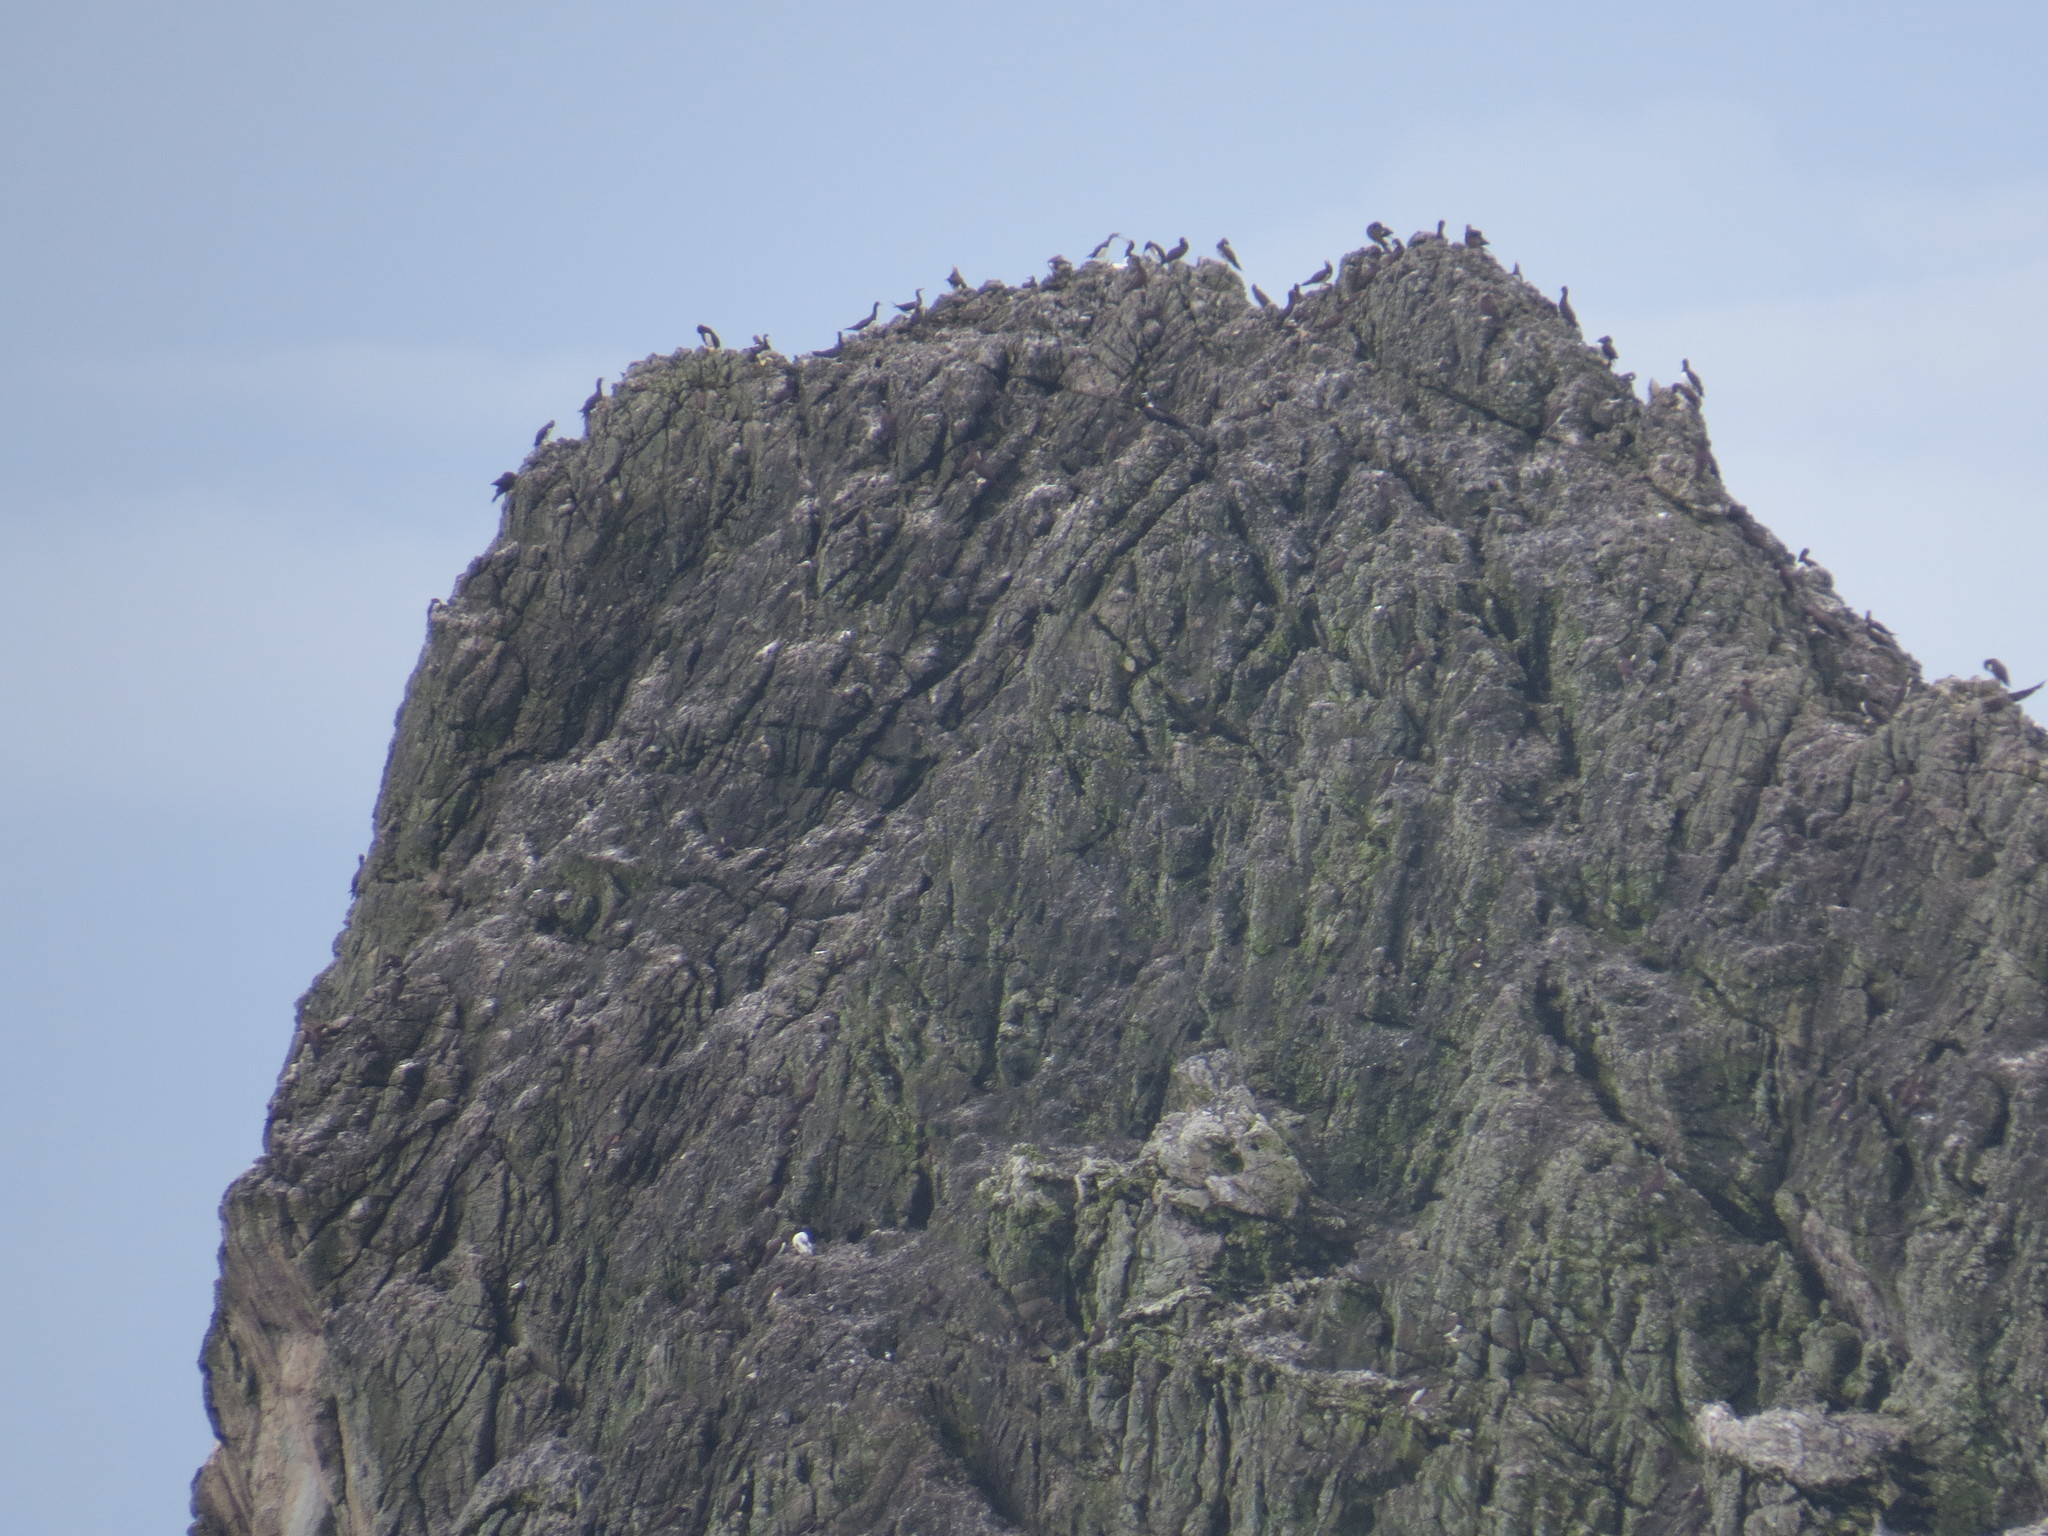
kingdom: Animalia
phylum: Chordata
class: Aves
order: Suliformes
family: Sulidae
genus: Sula
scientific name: Sula leucogaster
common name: Brown booby
